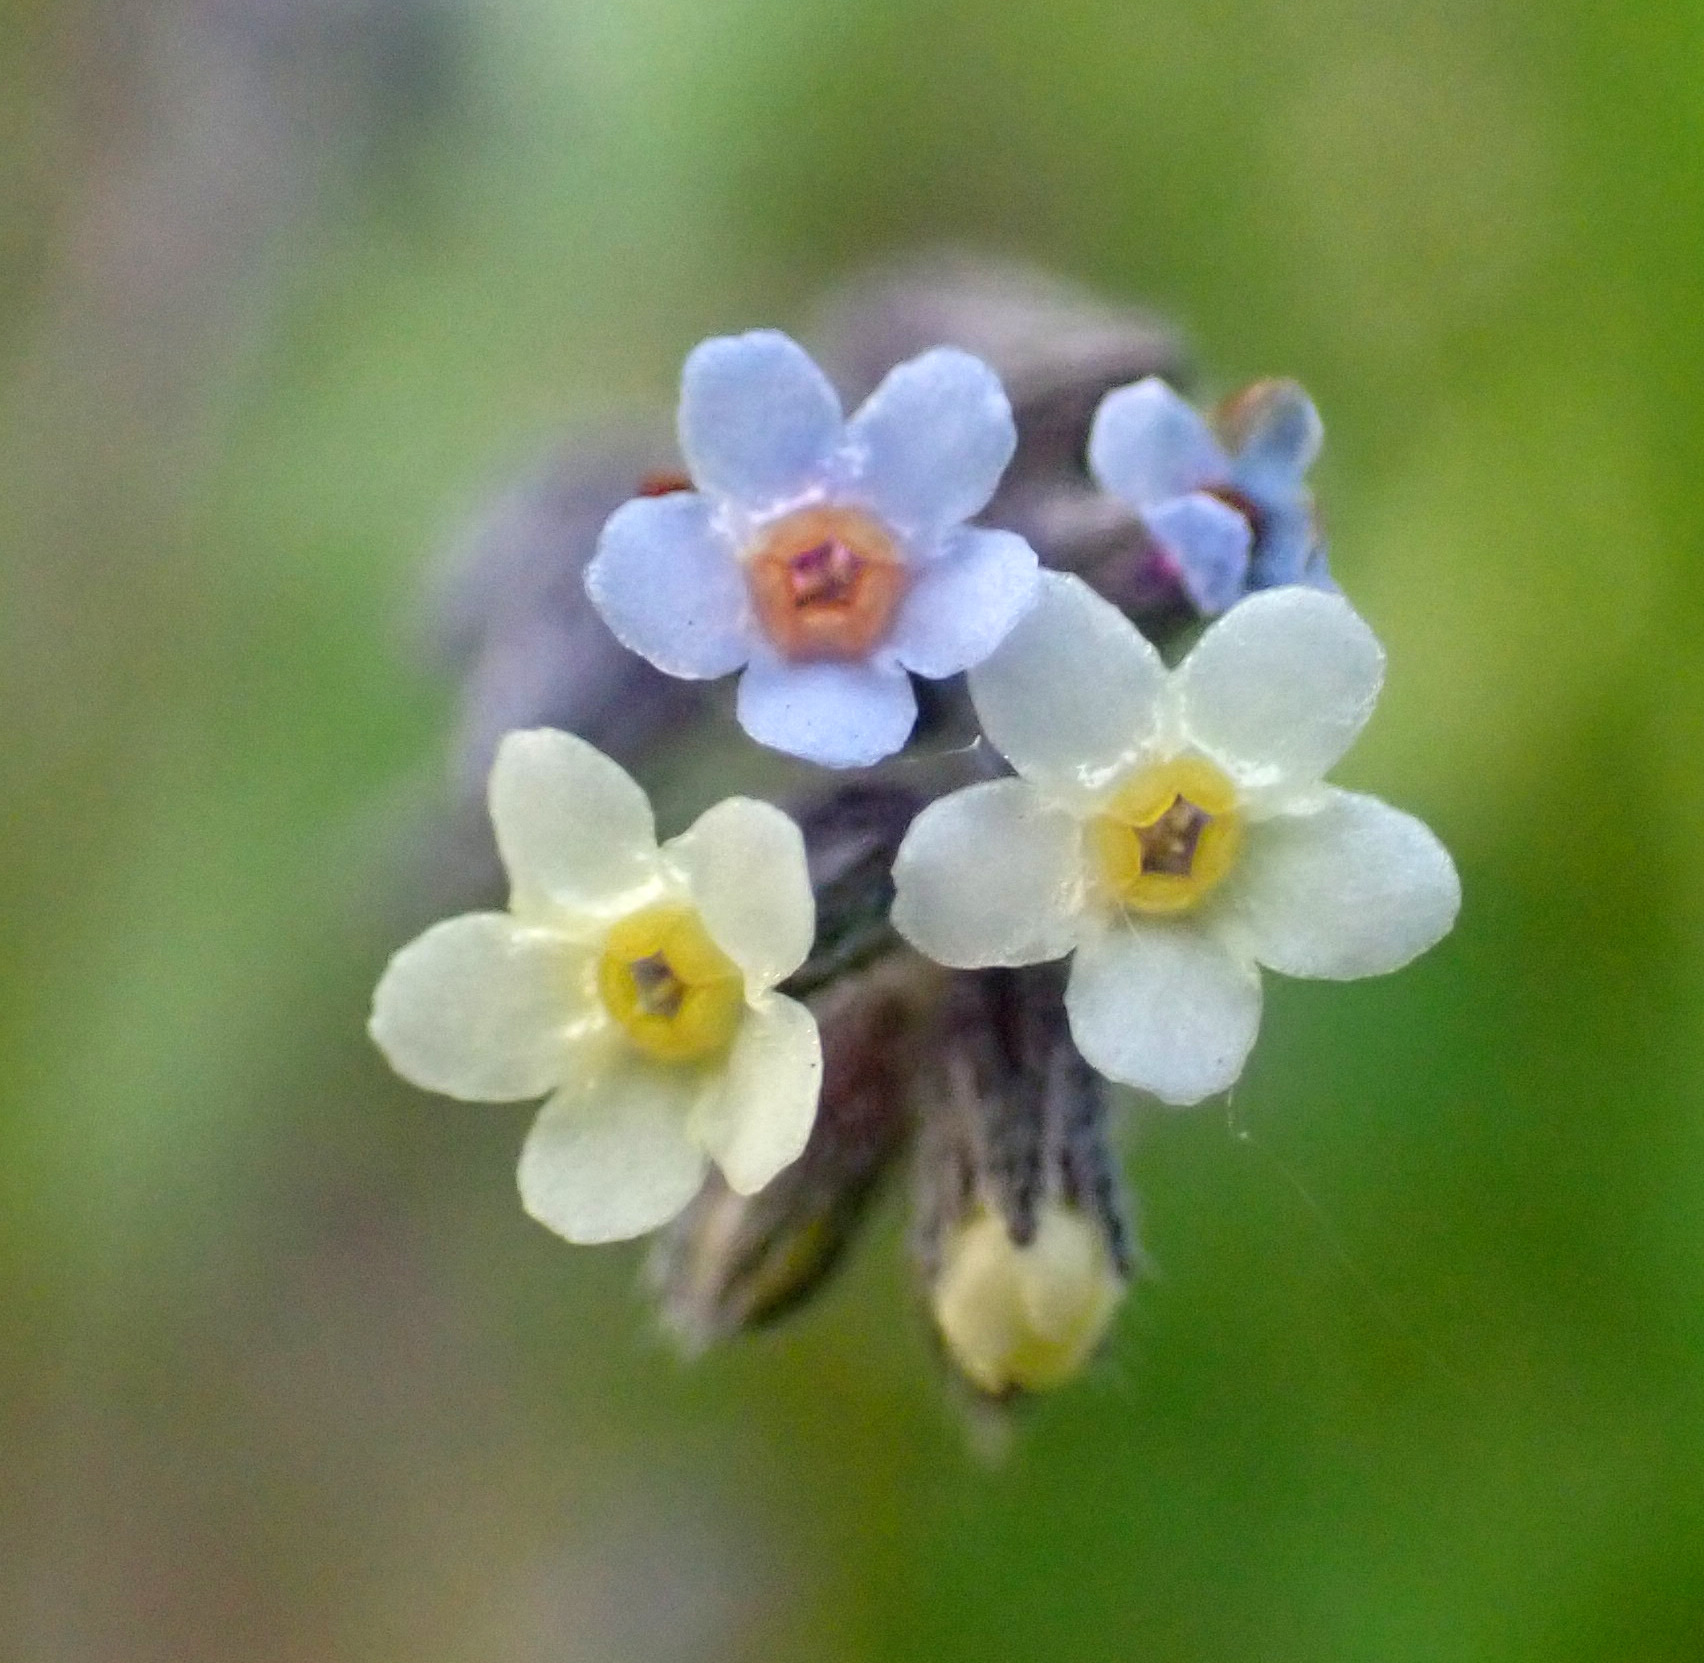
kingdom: Plantae
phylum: Tracheophyta
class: Magnoliopsida
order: Boraginales
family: Boraginaceae
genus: Myosotis
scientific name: Myosotis discolor
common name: Changing forget-me-not
